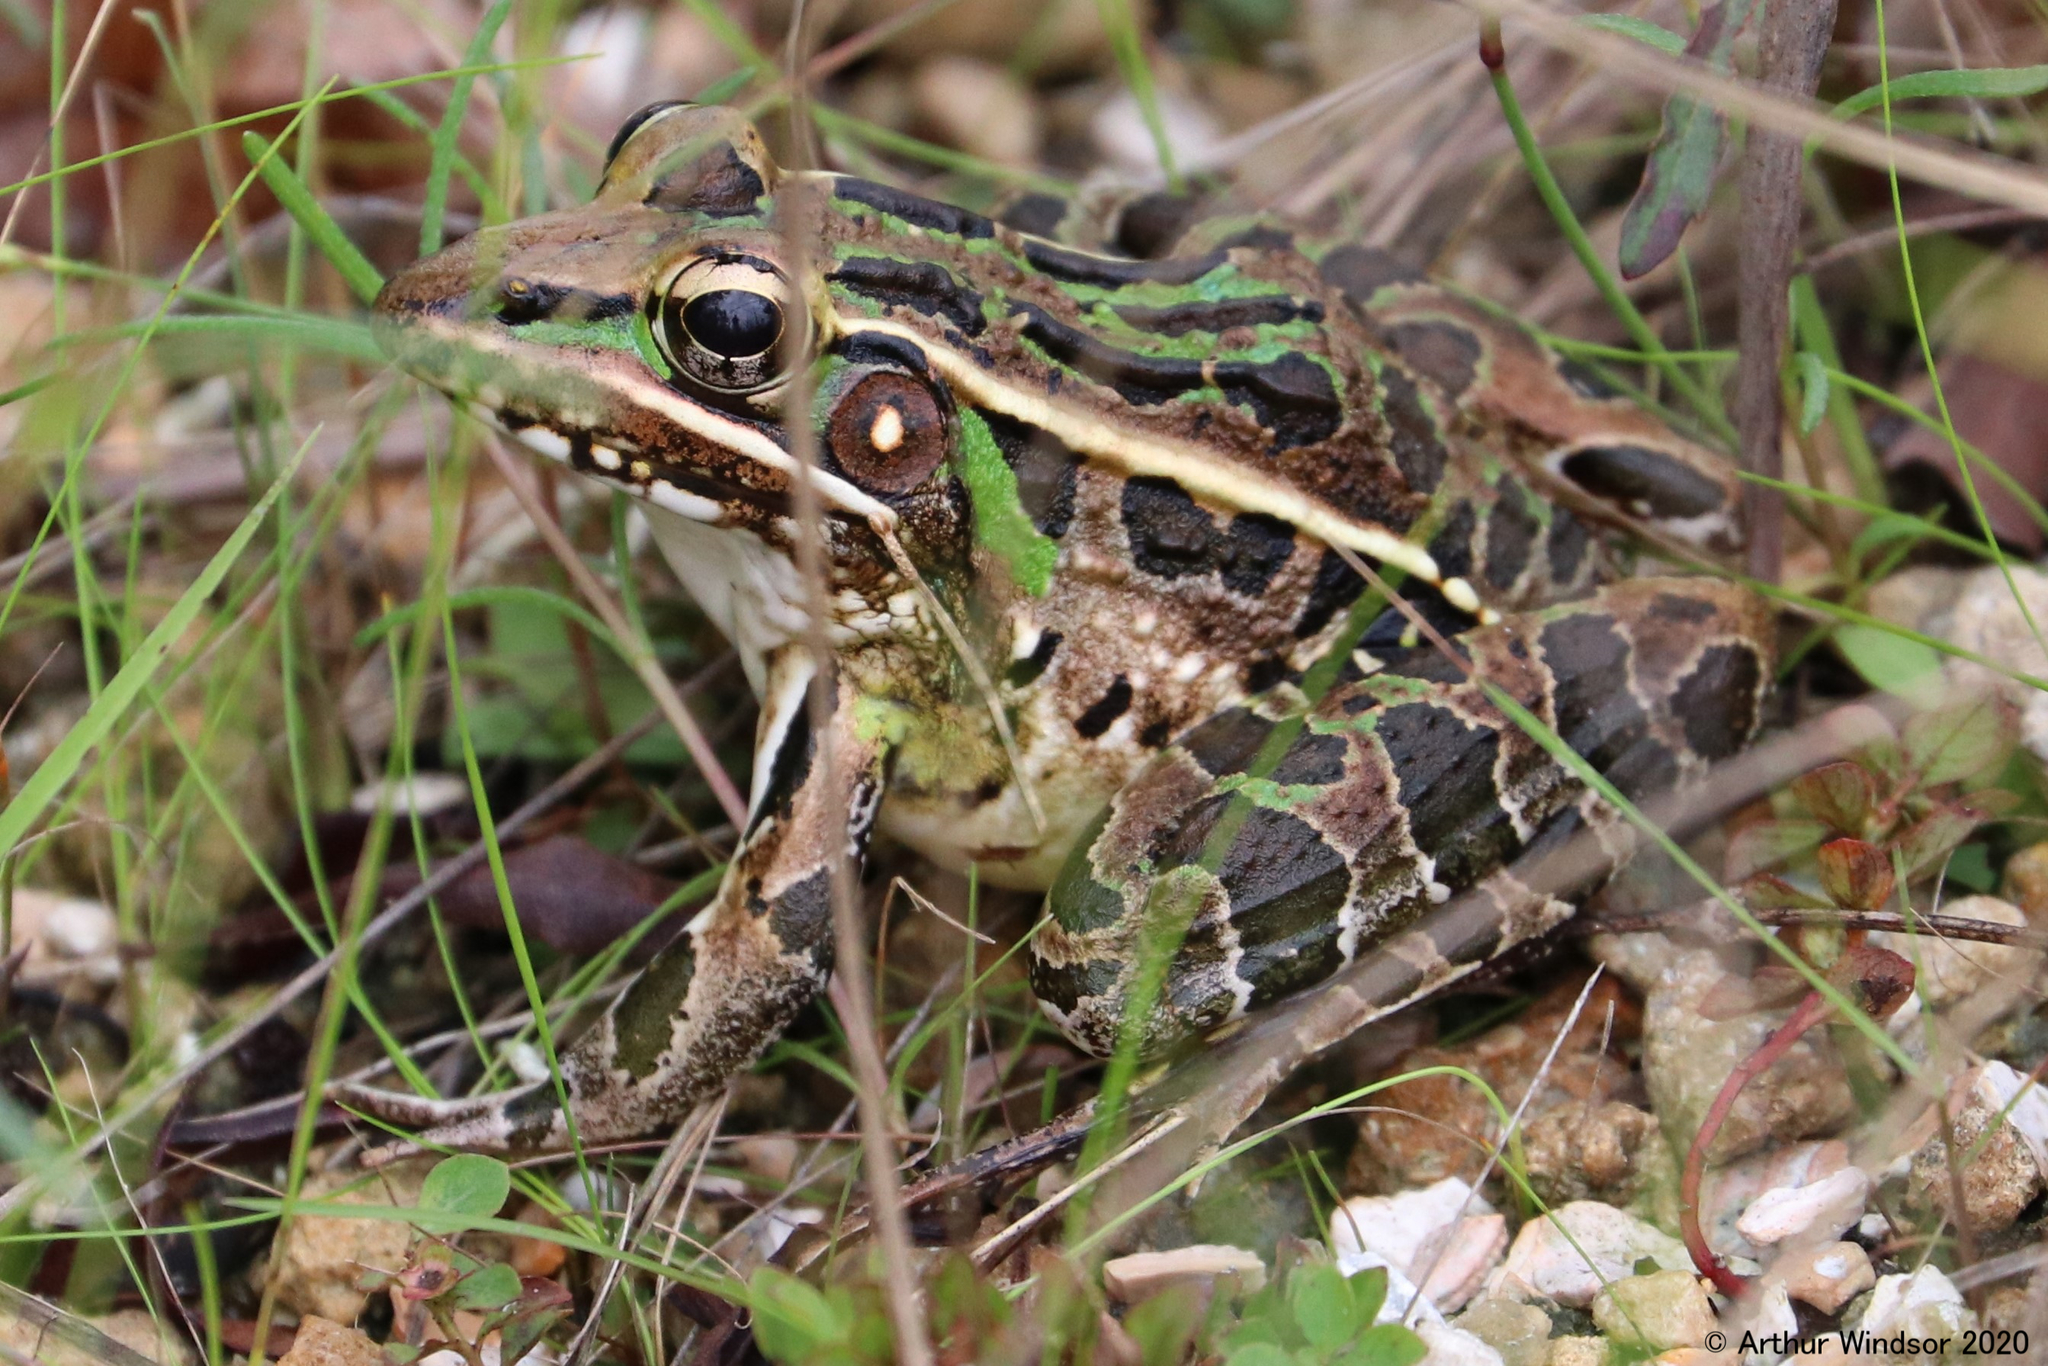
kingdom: Animalia
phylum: Chordata
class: Amphibia
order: Anura
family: Ranidae
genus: Lithobates
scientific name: Lithobates sphenocephalus
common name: Southern leopard frog
